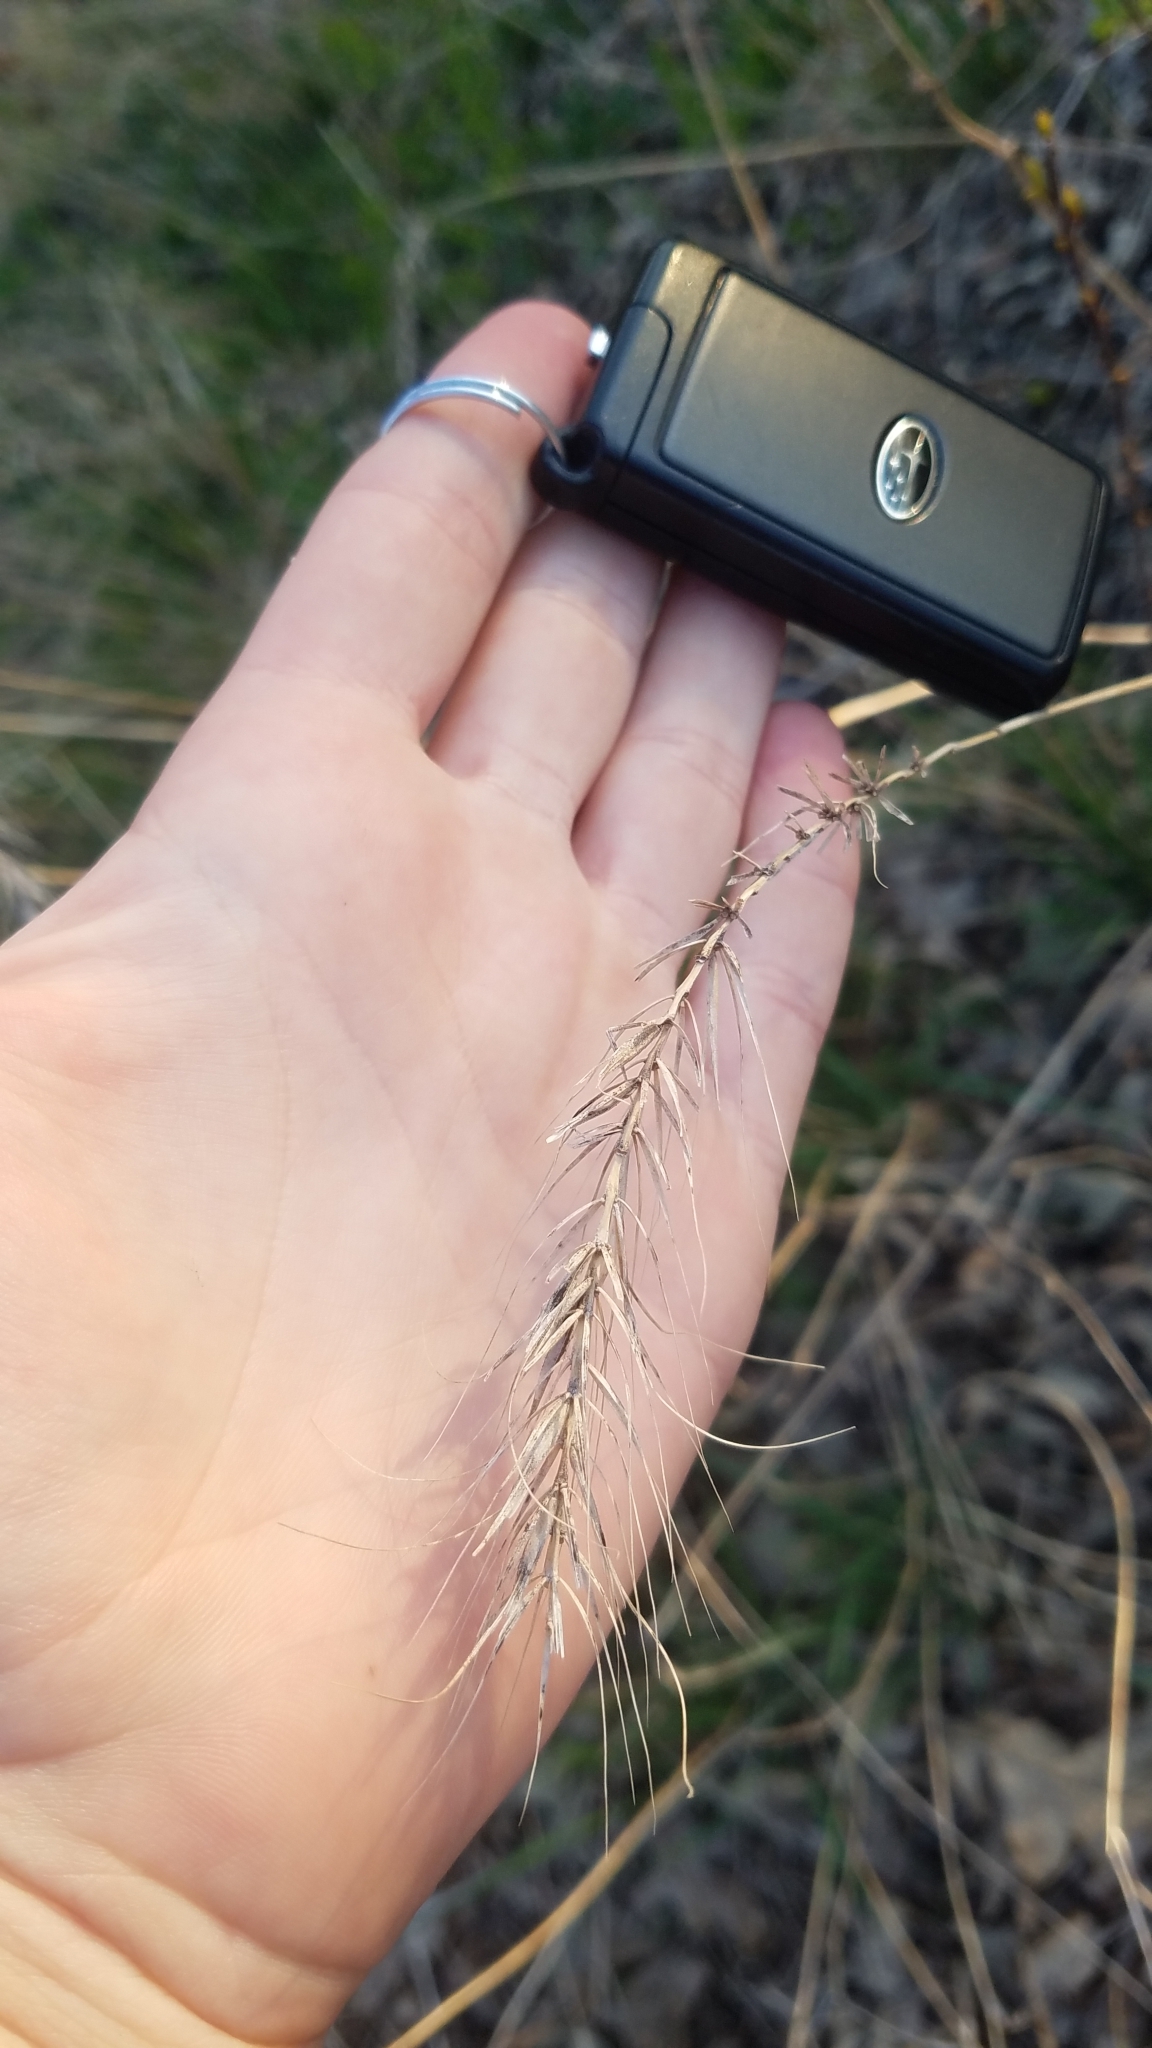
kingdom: Plantae
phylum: Tracheophyta
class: Liliopsida
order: Poales
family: Poaceae
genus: Elymus
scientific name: Elymus canadensis
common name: Canada wild rye
